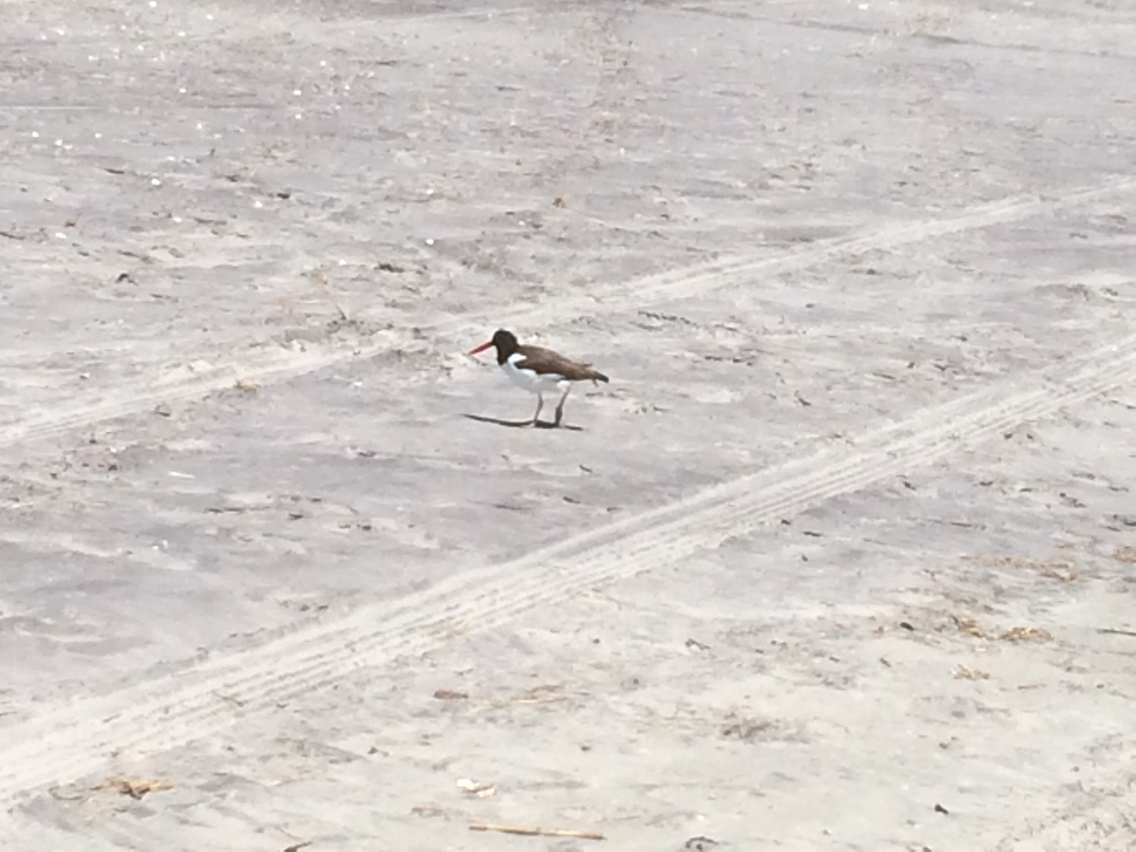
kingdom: Animalia
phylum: Chordata
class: Aves
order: Charadriiformes
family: Haematopodidae
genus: Haematopus
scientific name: Haematopus palliatus
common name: American oystercatcher
